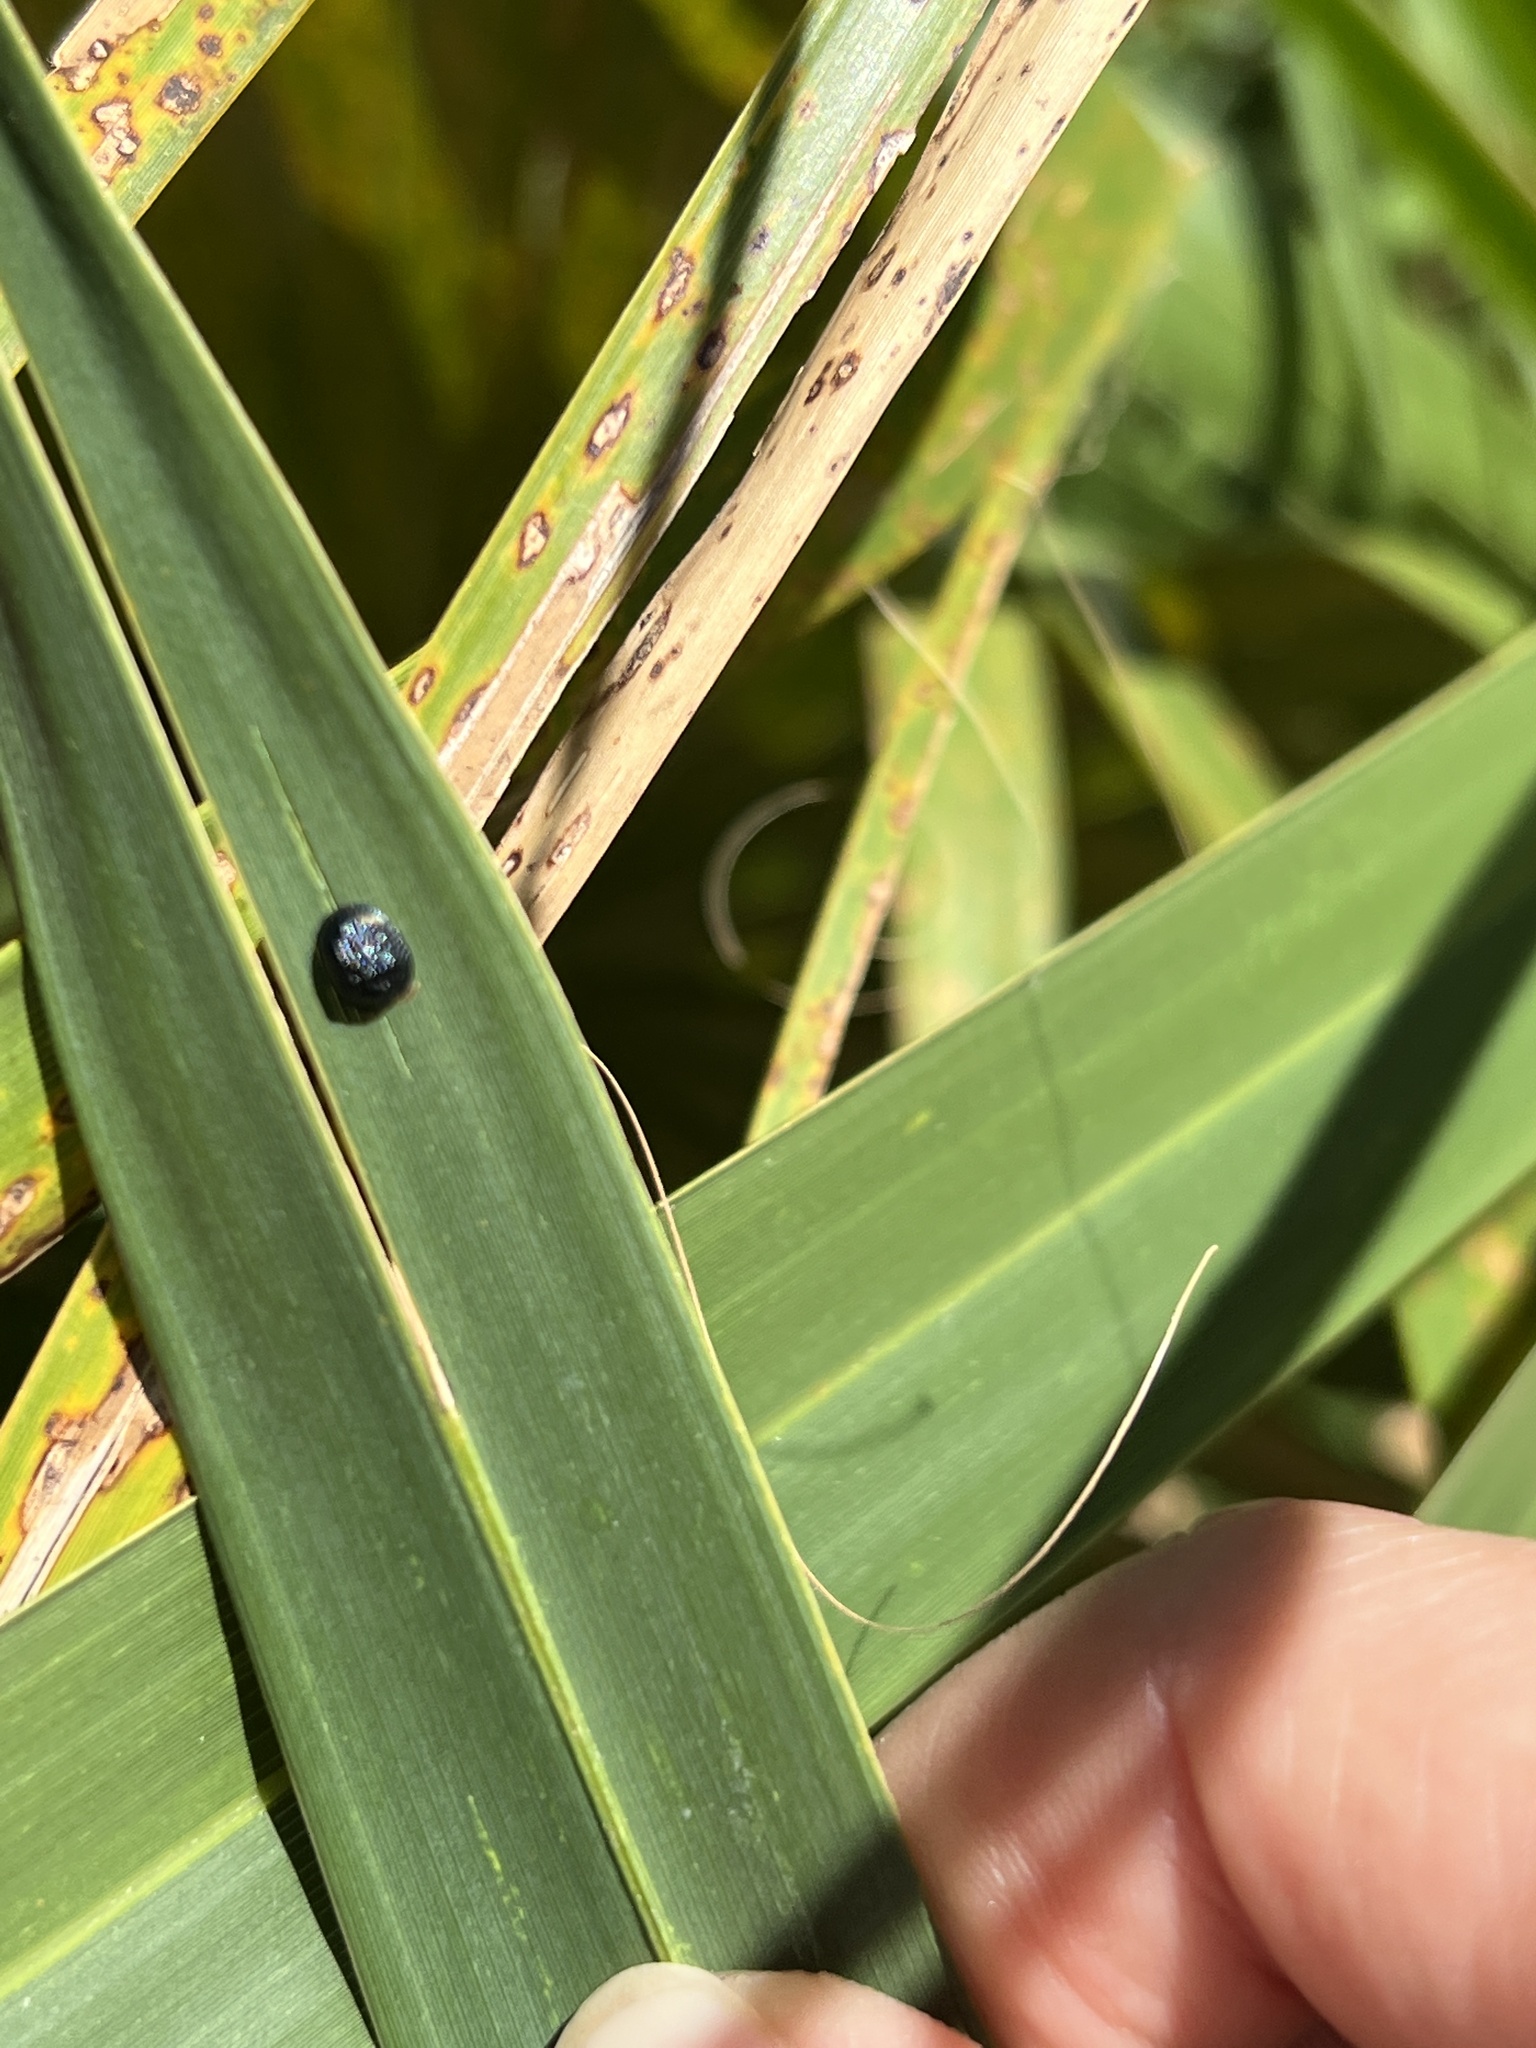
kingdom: Animalia
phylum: Arthropoda
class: Insecta
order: Coleoptera
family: Chrysomelidae
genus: Hemisphaerota
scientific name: Hemisphaerota cyanea
